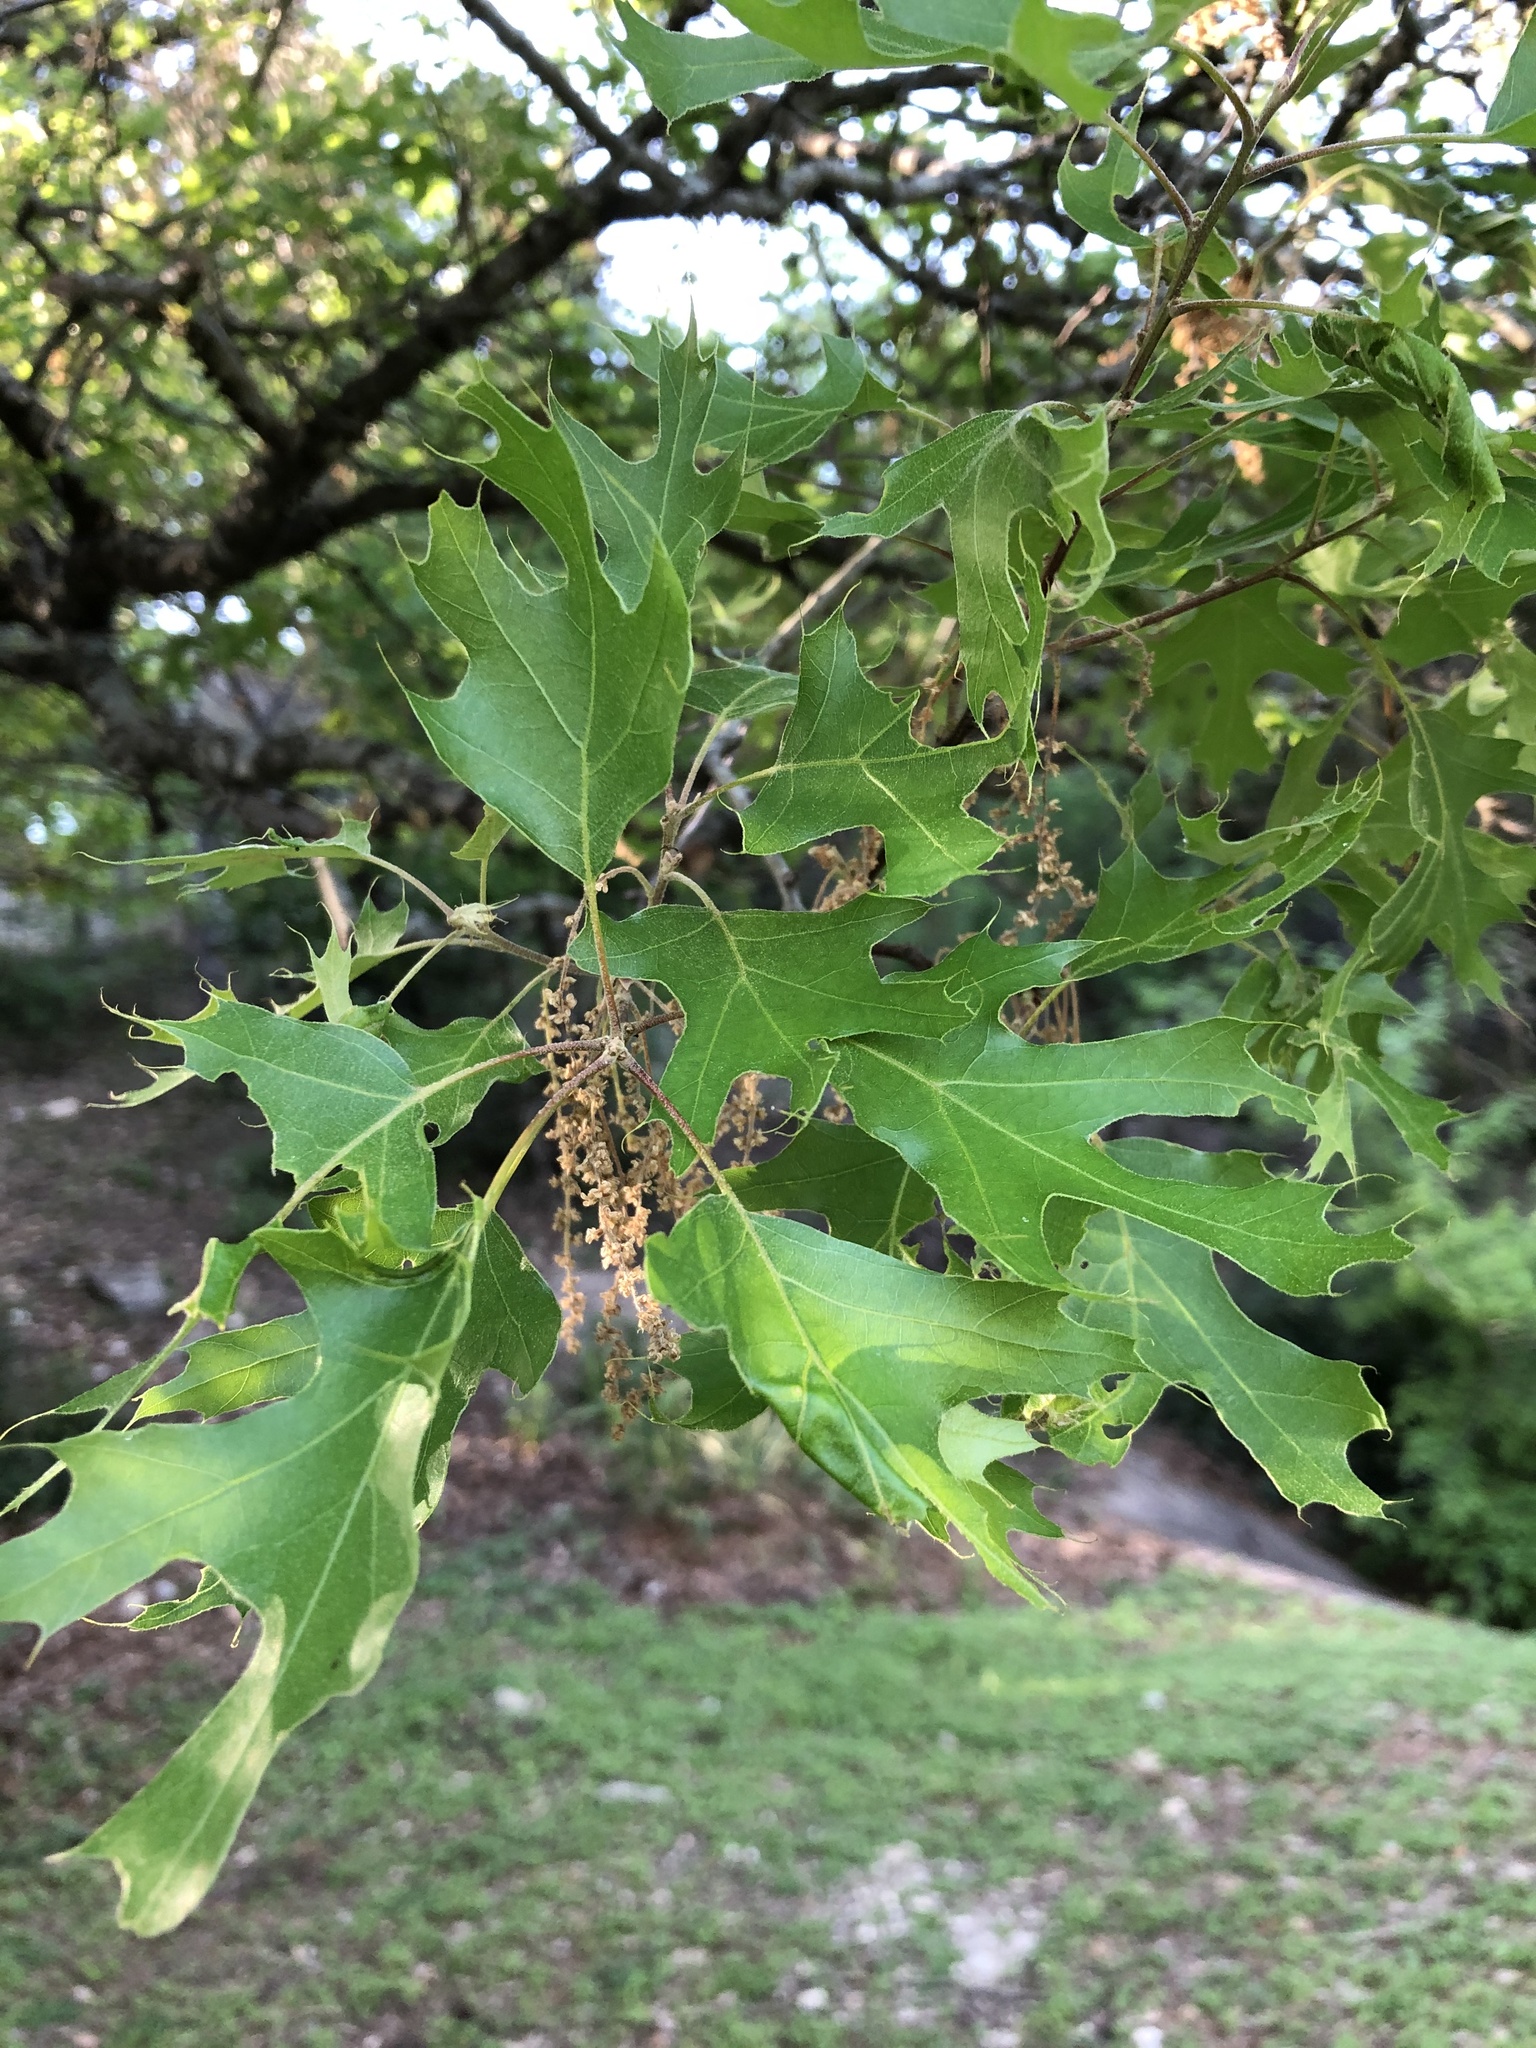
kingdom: Plantae
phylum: Tracheophyta
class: Magnoliopsida
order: Fagales
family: Fagaceae
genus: Quercus
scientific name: Quercus buckleyi
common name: Buckley oak
